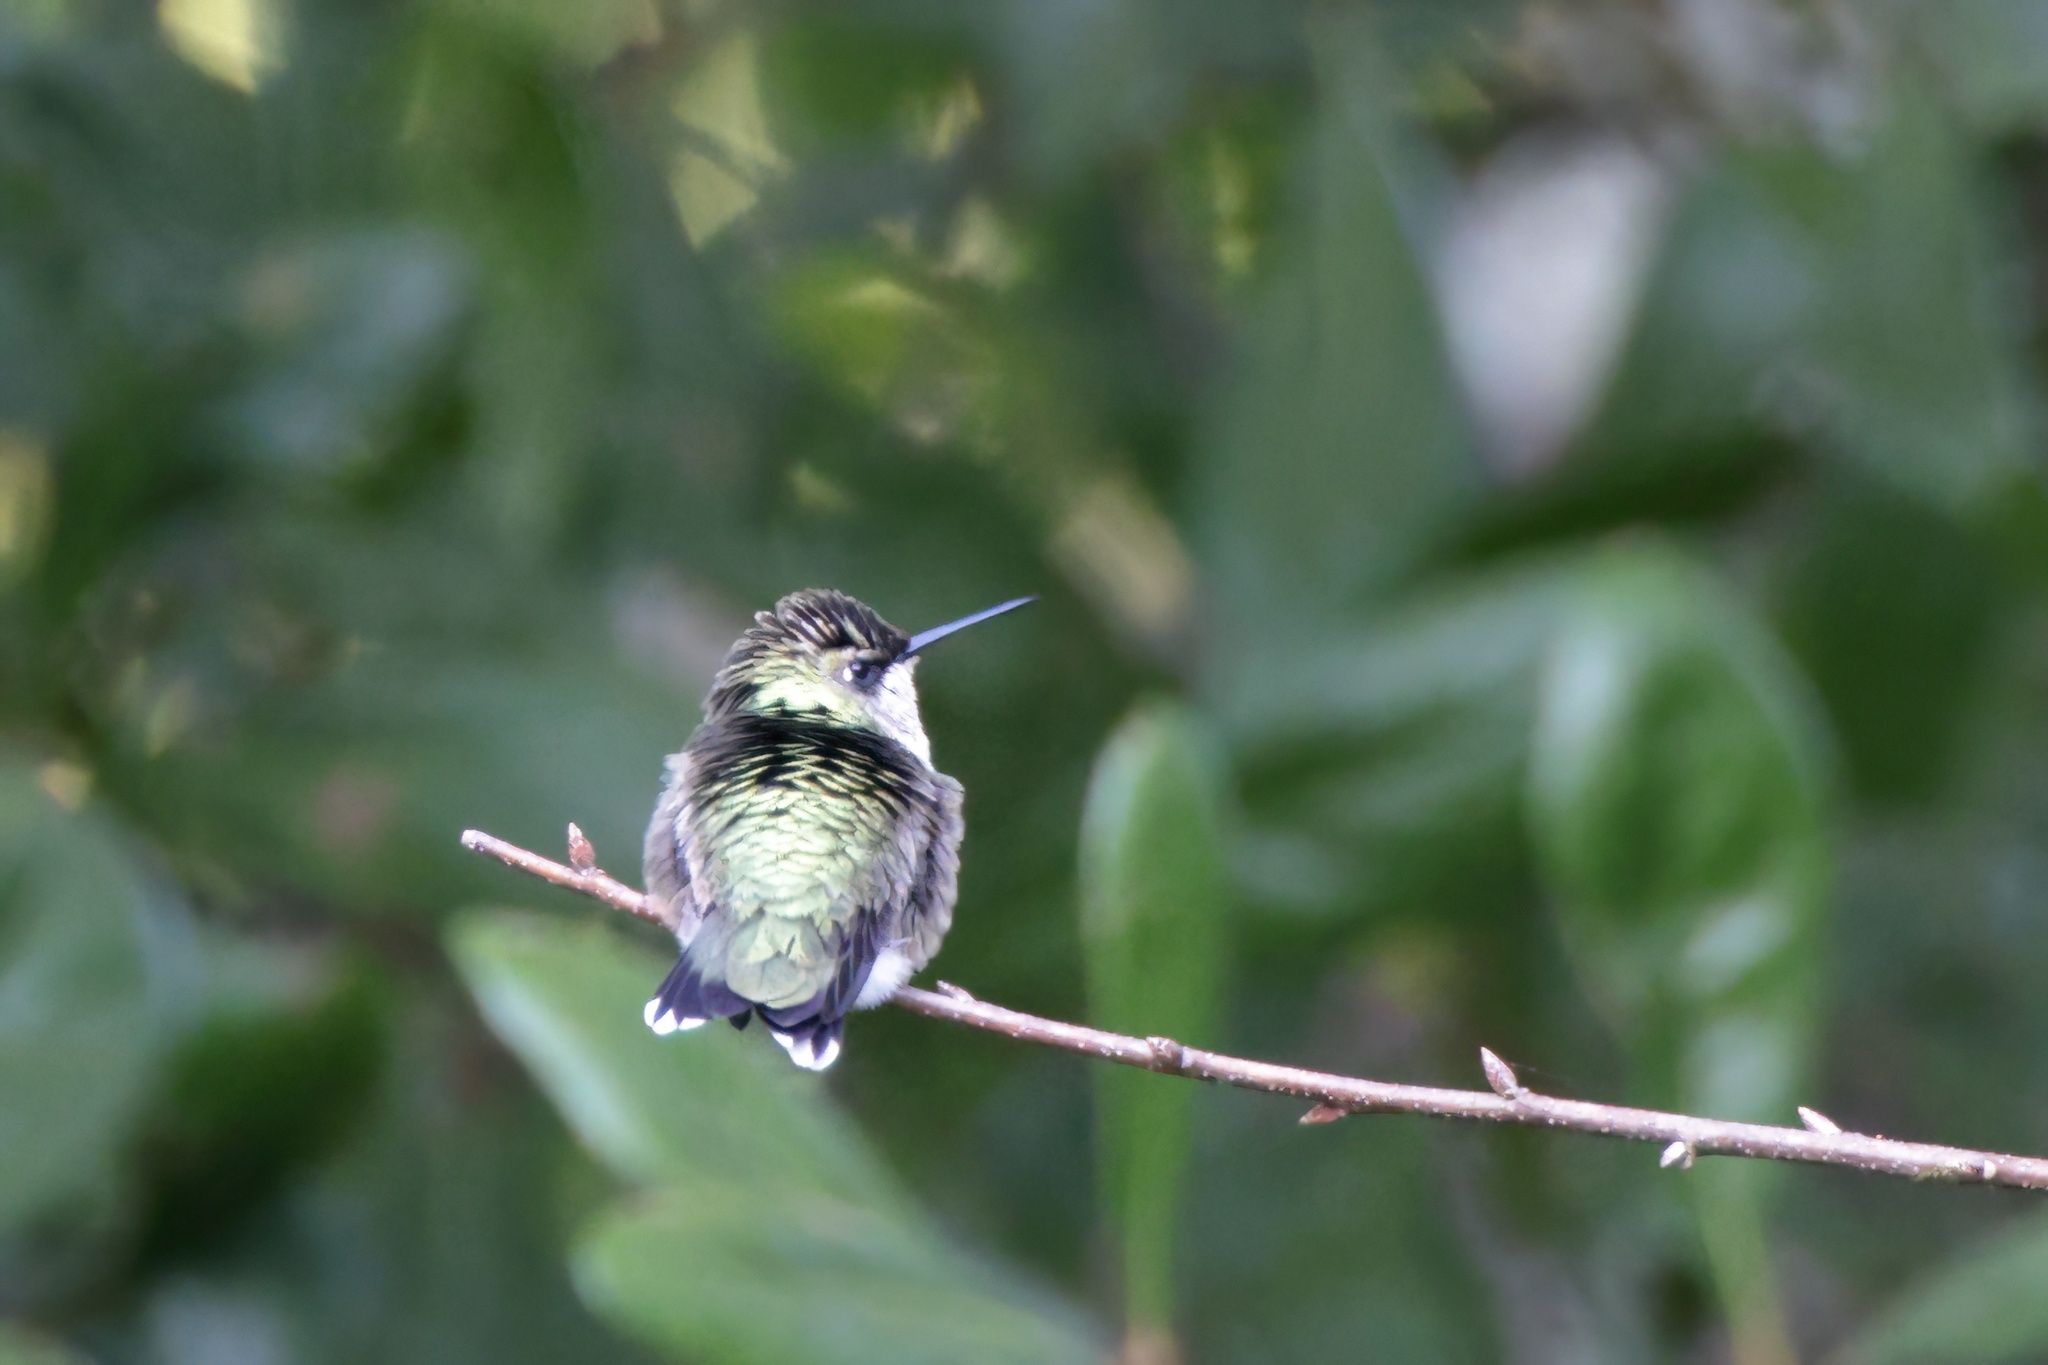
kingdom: Animalia
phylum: Chordata
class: Aves
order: Apodiformes
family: Trochilidae
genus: Archilochus
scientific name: Archilochus colubris
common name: Ruby-throated hummingbird
